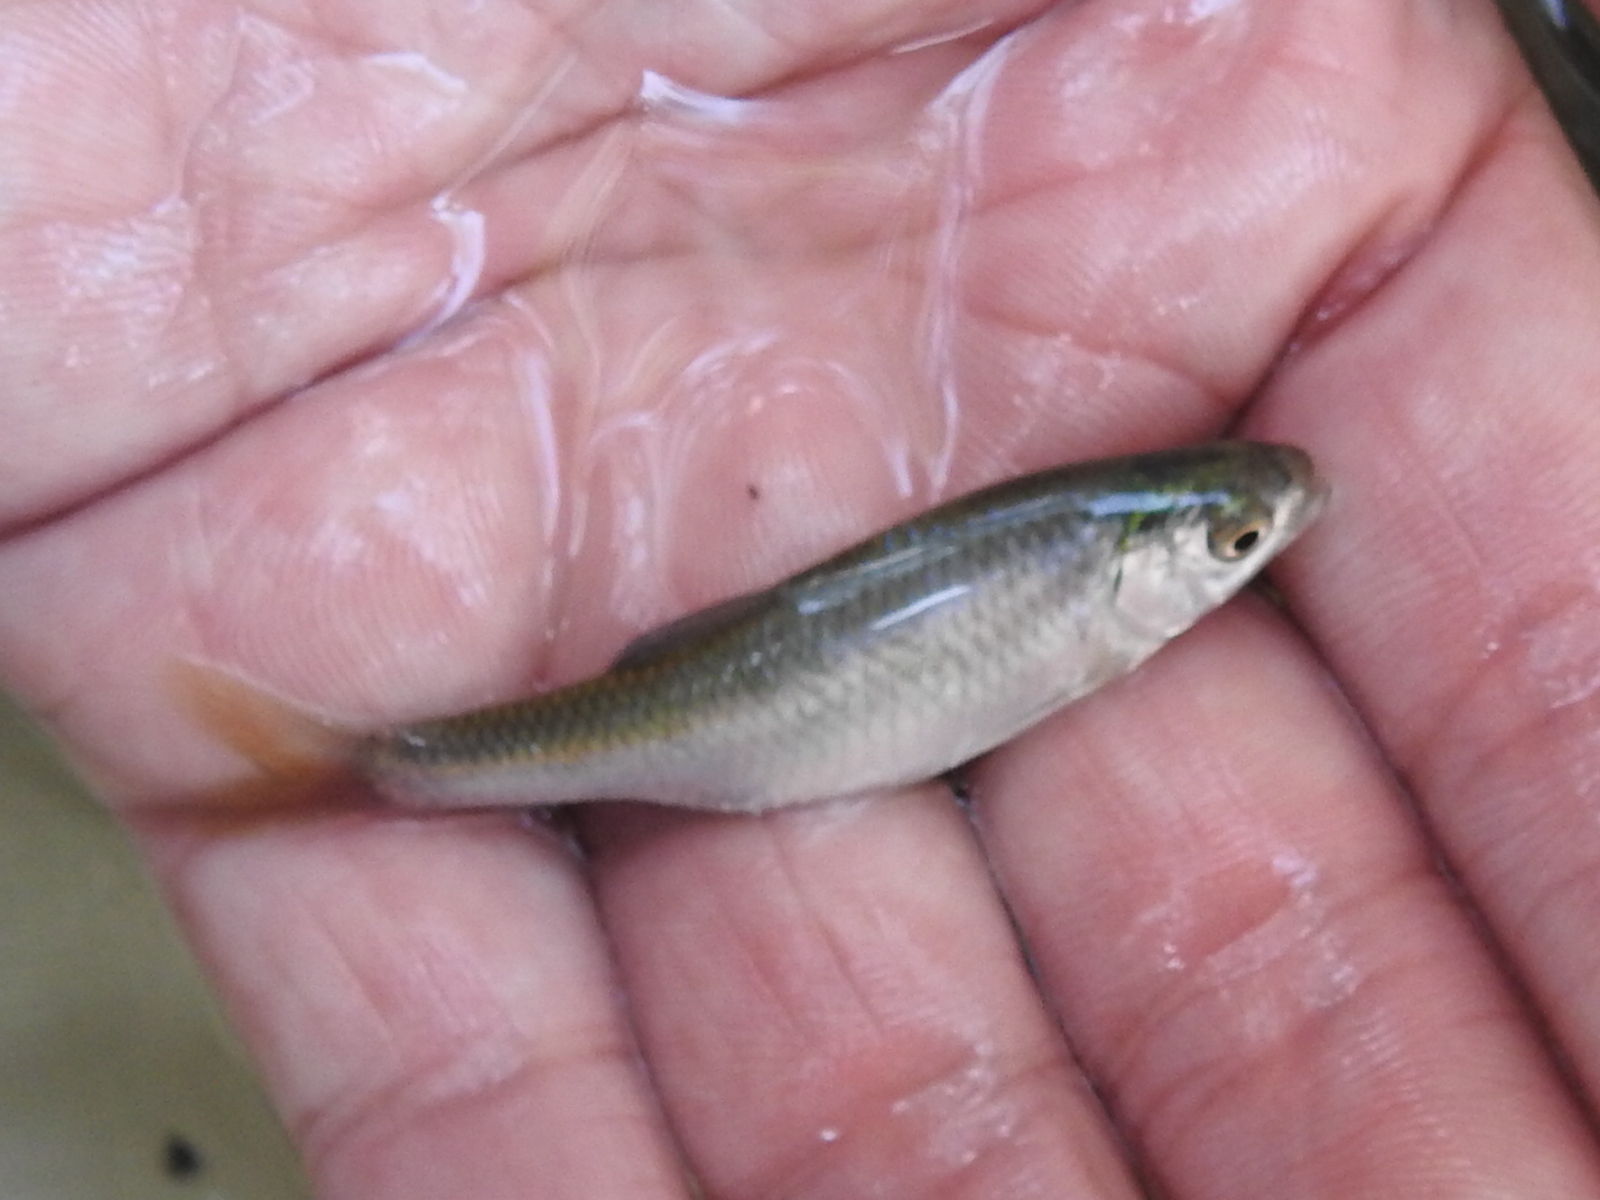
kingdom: Animalia
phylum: Chordata
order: Cypriniformes
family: Cyprinidae
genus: Cyprinella
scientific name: Cyprinella lutrensis
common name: Red shiner
